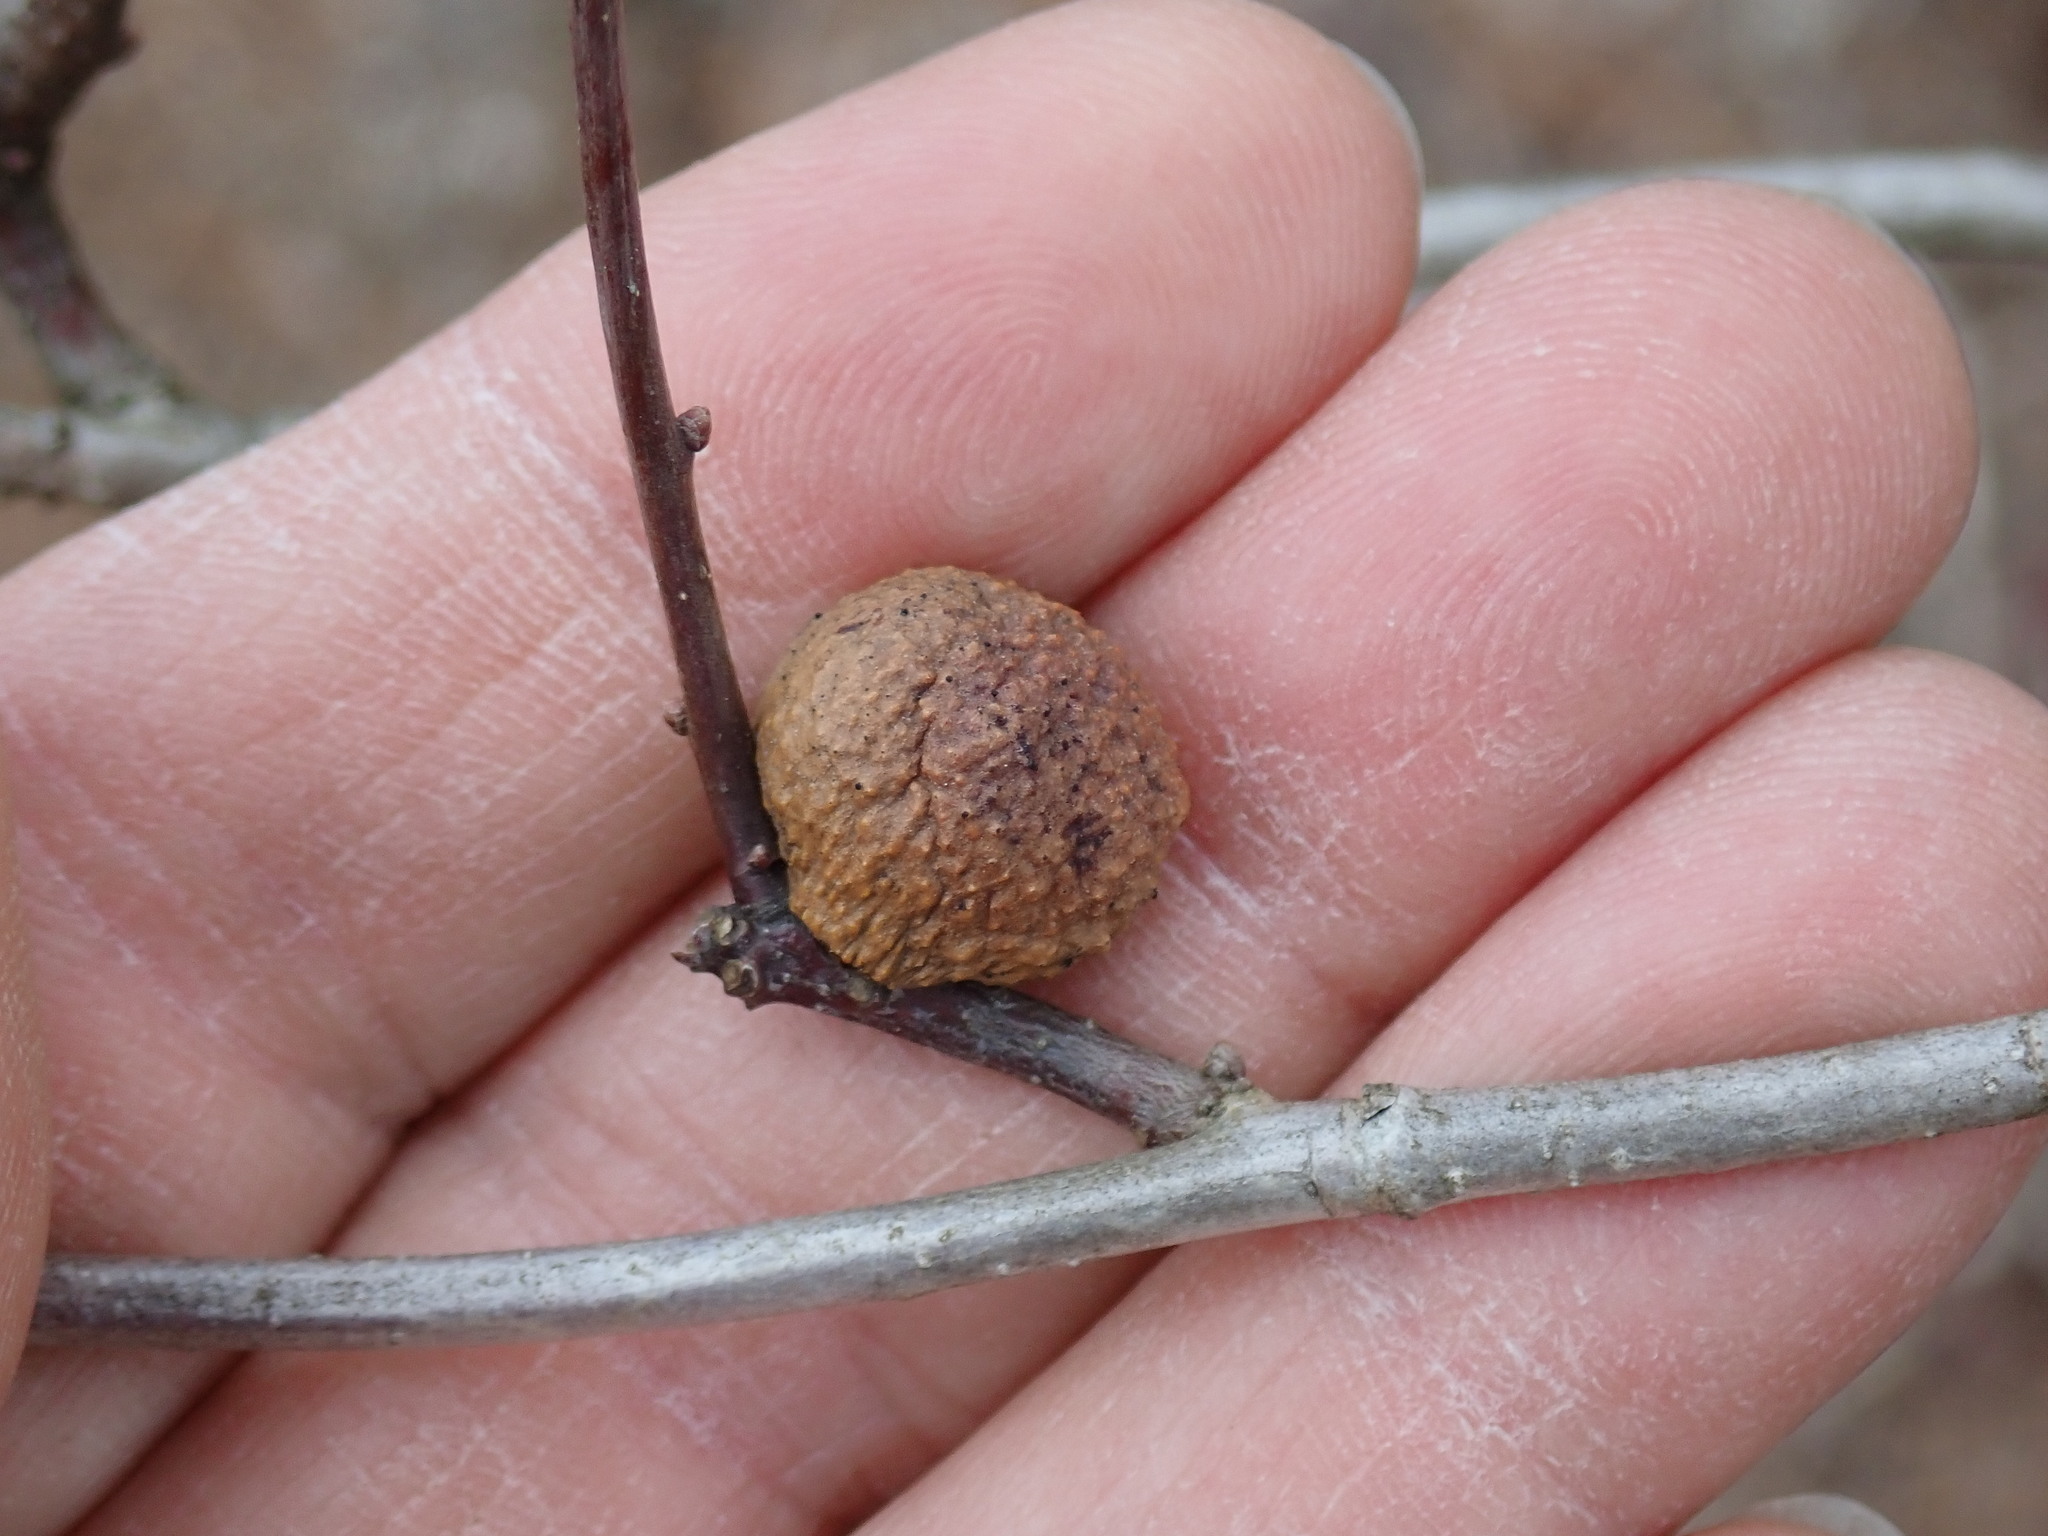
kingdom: Animalia
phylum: Arthropoda
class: Insecta
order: Hymenoptera
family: Cynipidae
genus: Disholcaspis
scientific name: Disholcaspis quercusglobulus
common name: Round bullet gall wasp
